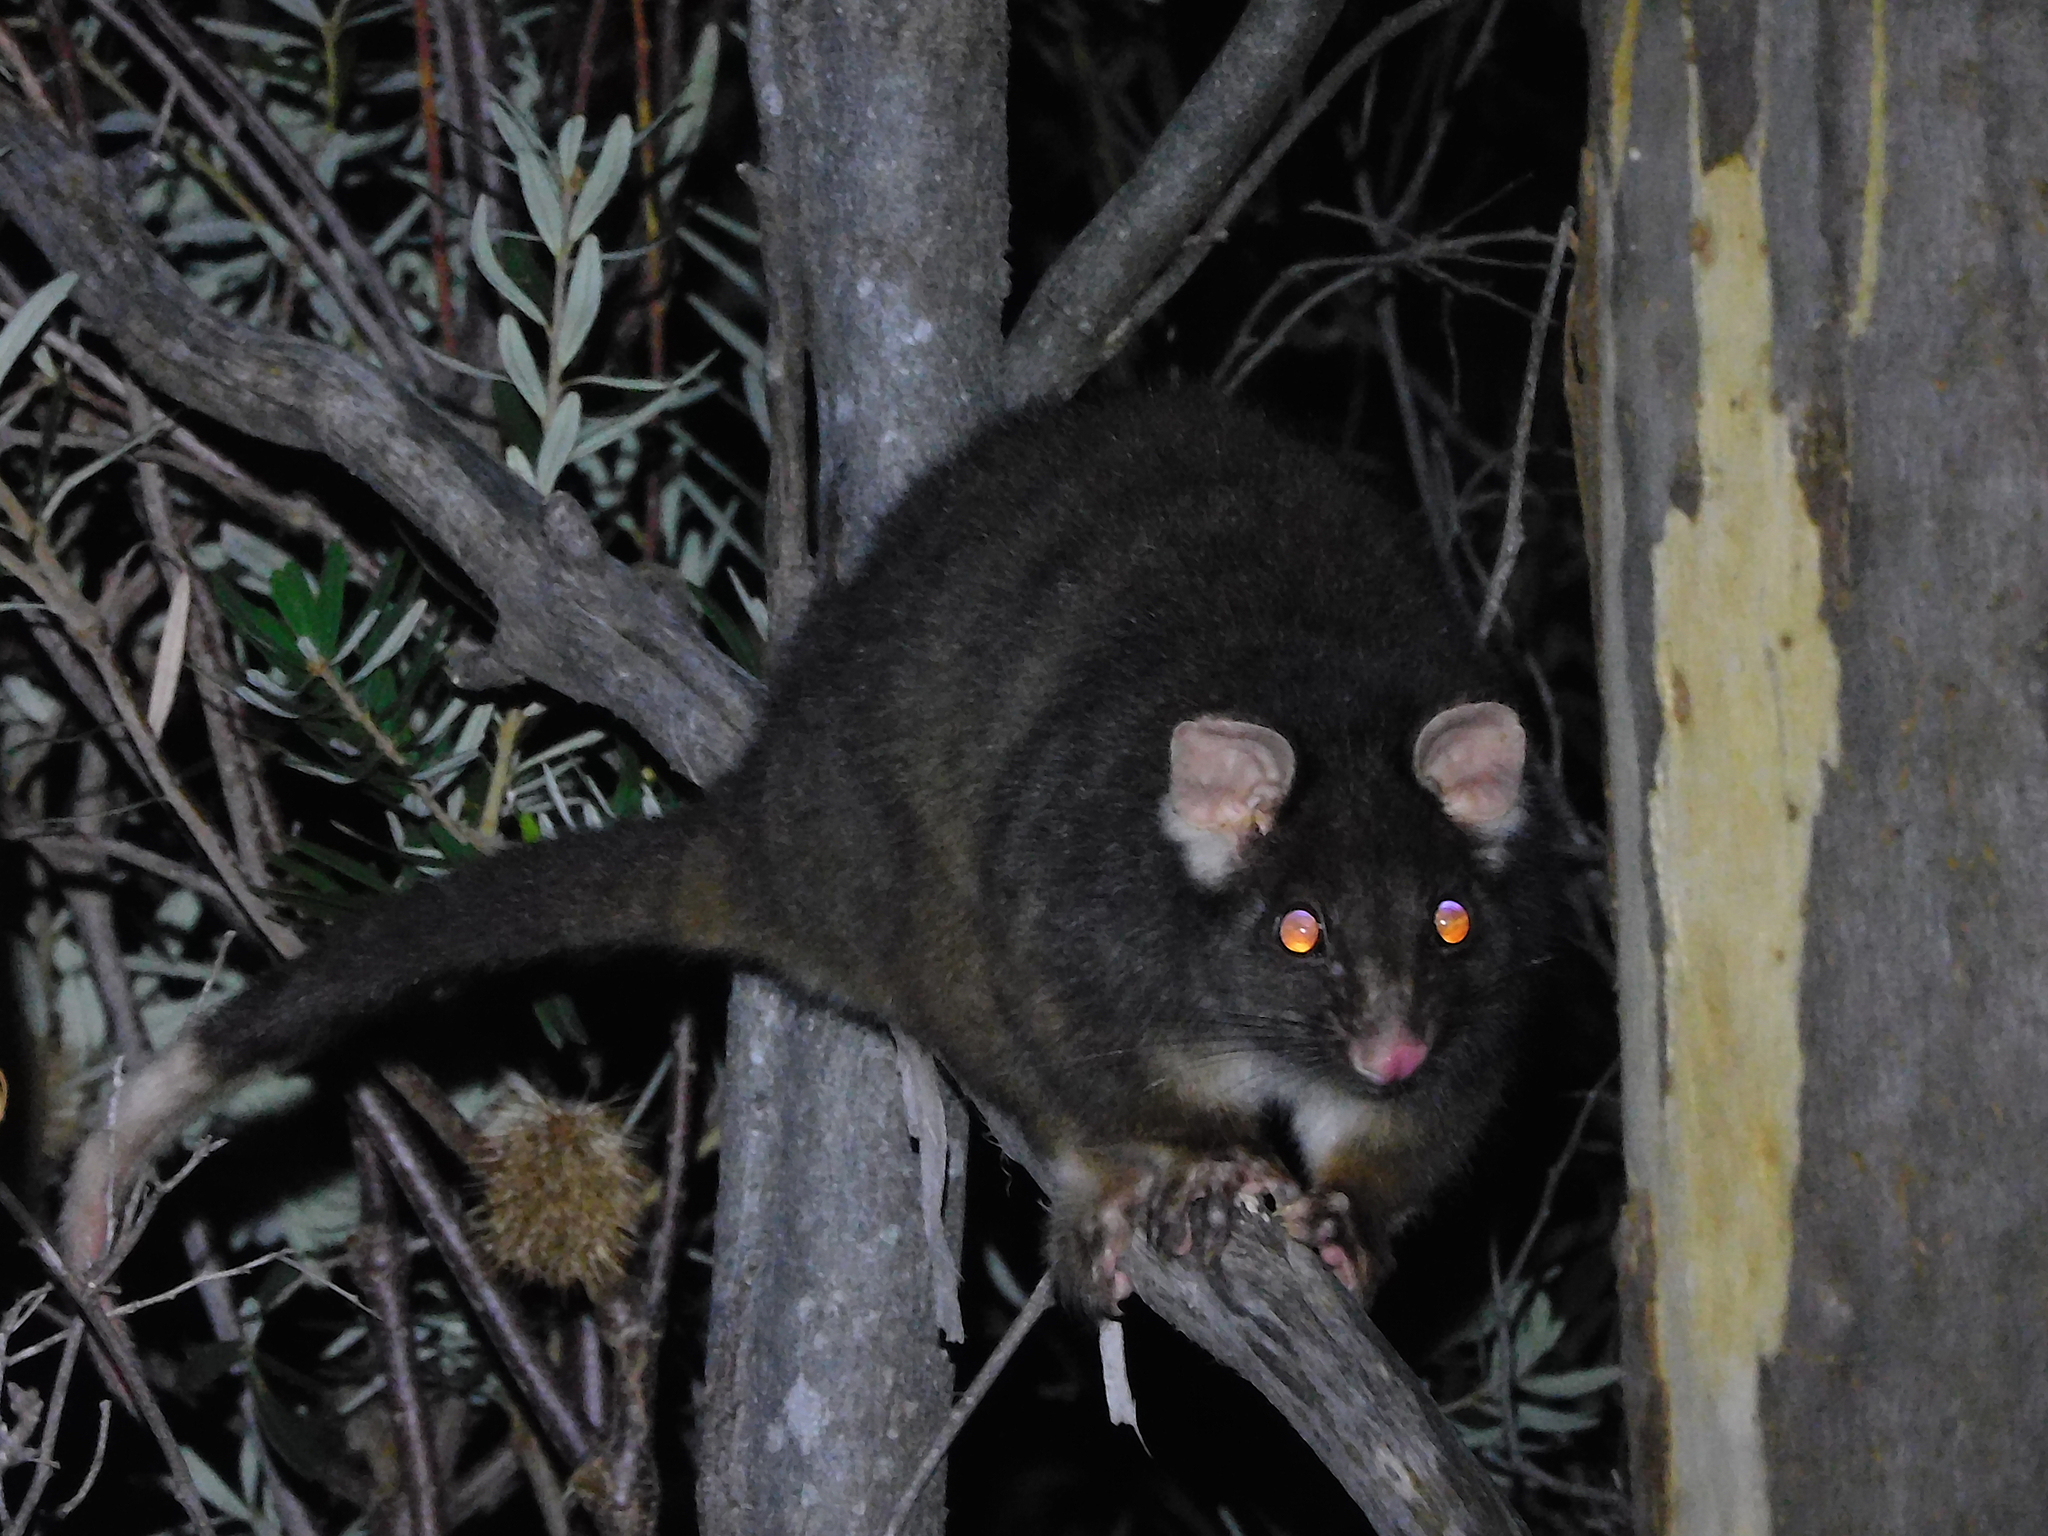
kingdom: Animalia
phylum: Chordata
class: Mammalia
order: Diprotodontia
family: Pseudocheiridae
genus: Pseudocheirus
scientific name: Pseudocheirus peregrinus
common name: Common ringtail possum
